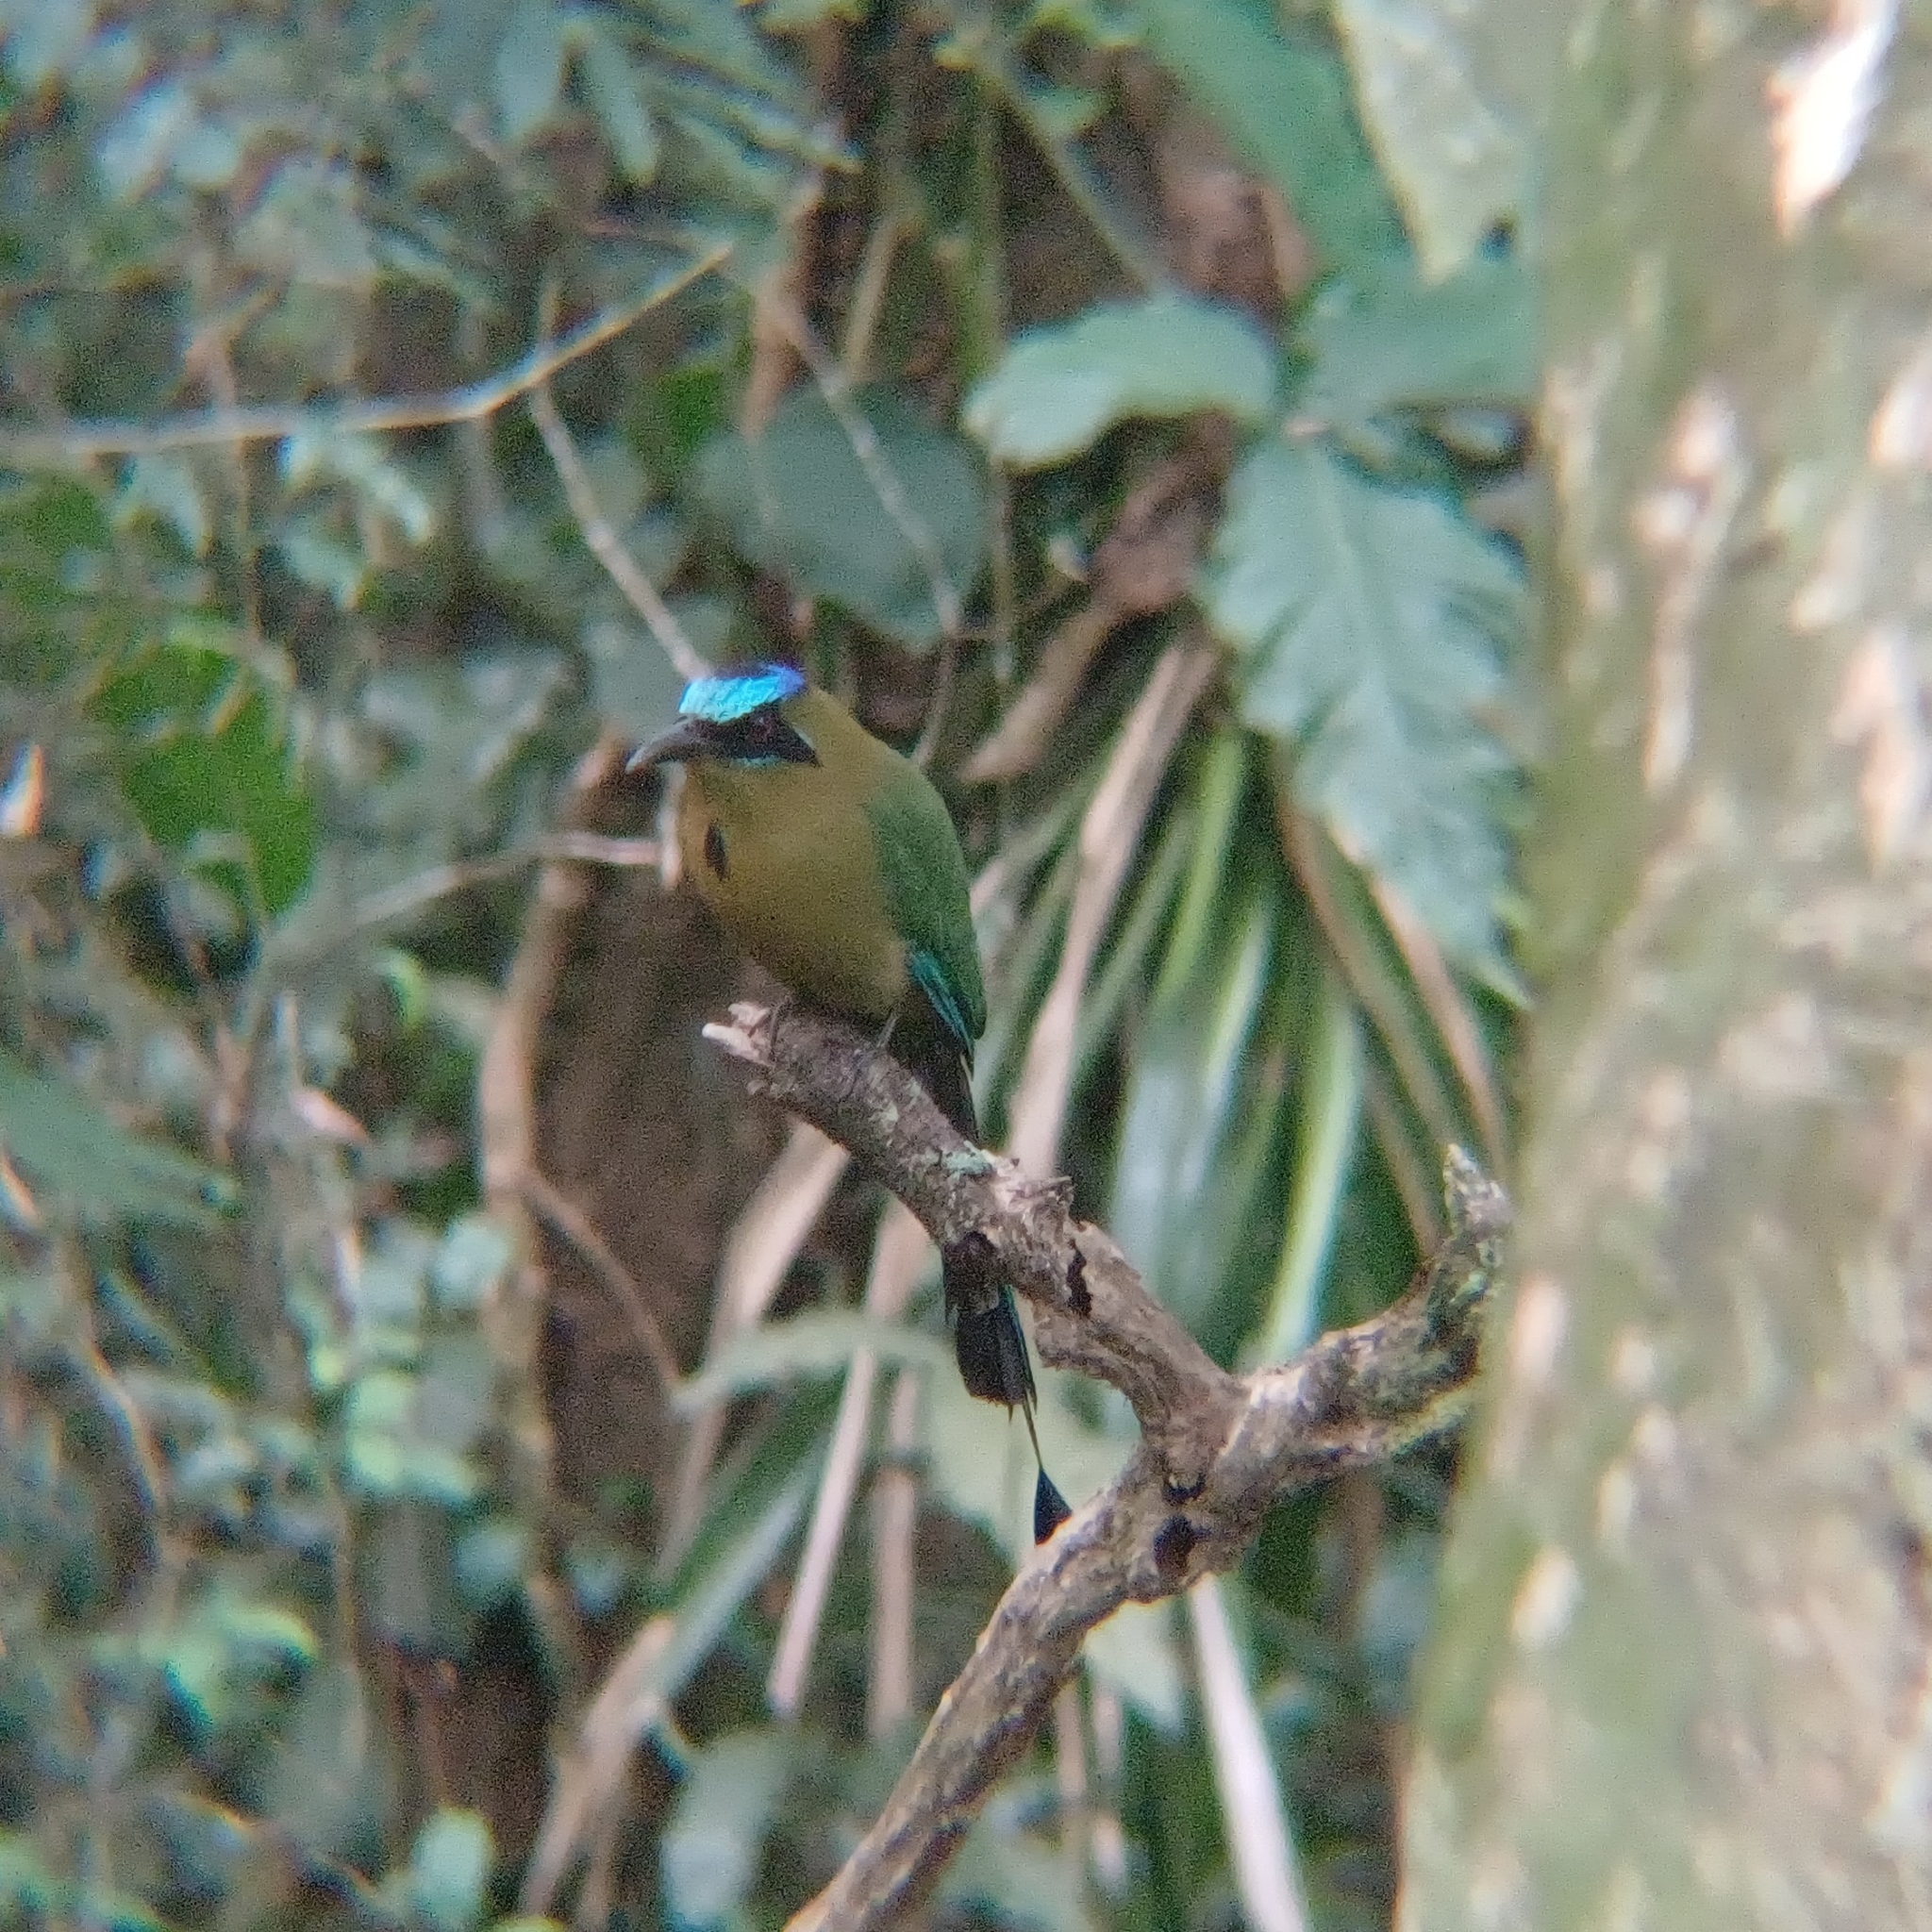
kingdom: Animalia
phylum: Chordata
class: Aves
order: Coraciiformes
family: Momotidae
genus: Momotus
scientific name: Momotus momota
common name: Amazonian motmot
